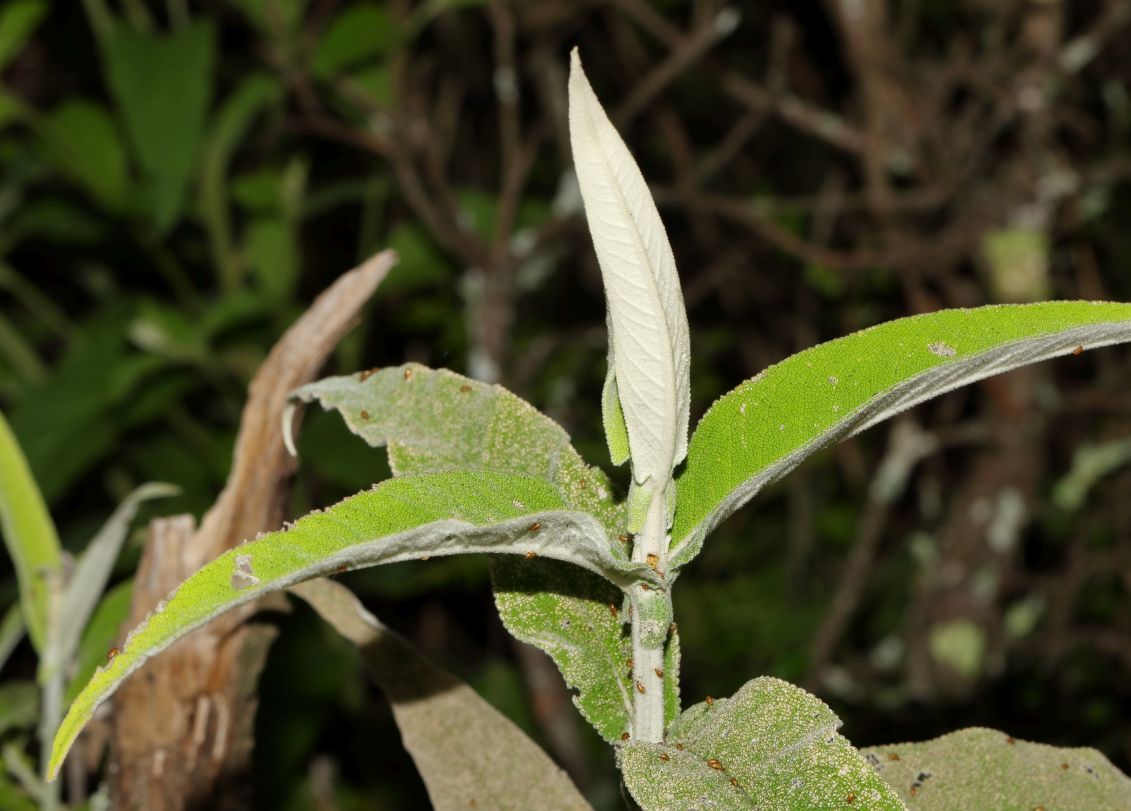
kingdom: Plantae
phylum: Tracheophyta
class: Magnoliopsida
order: Lamiales
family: Scrophulariaceae
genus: Buddleja
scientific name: Buddleja salviifolia
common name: Sagewood
